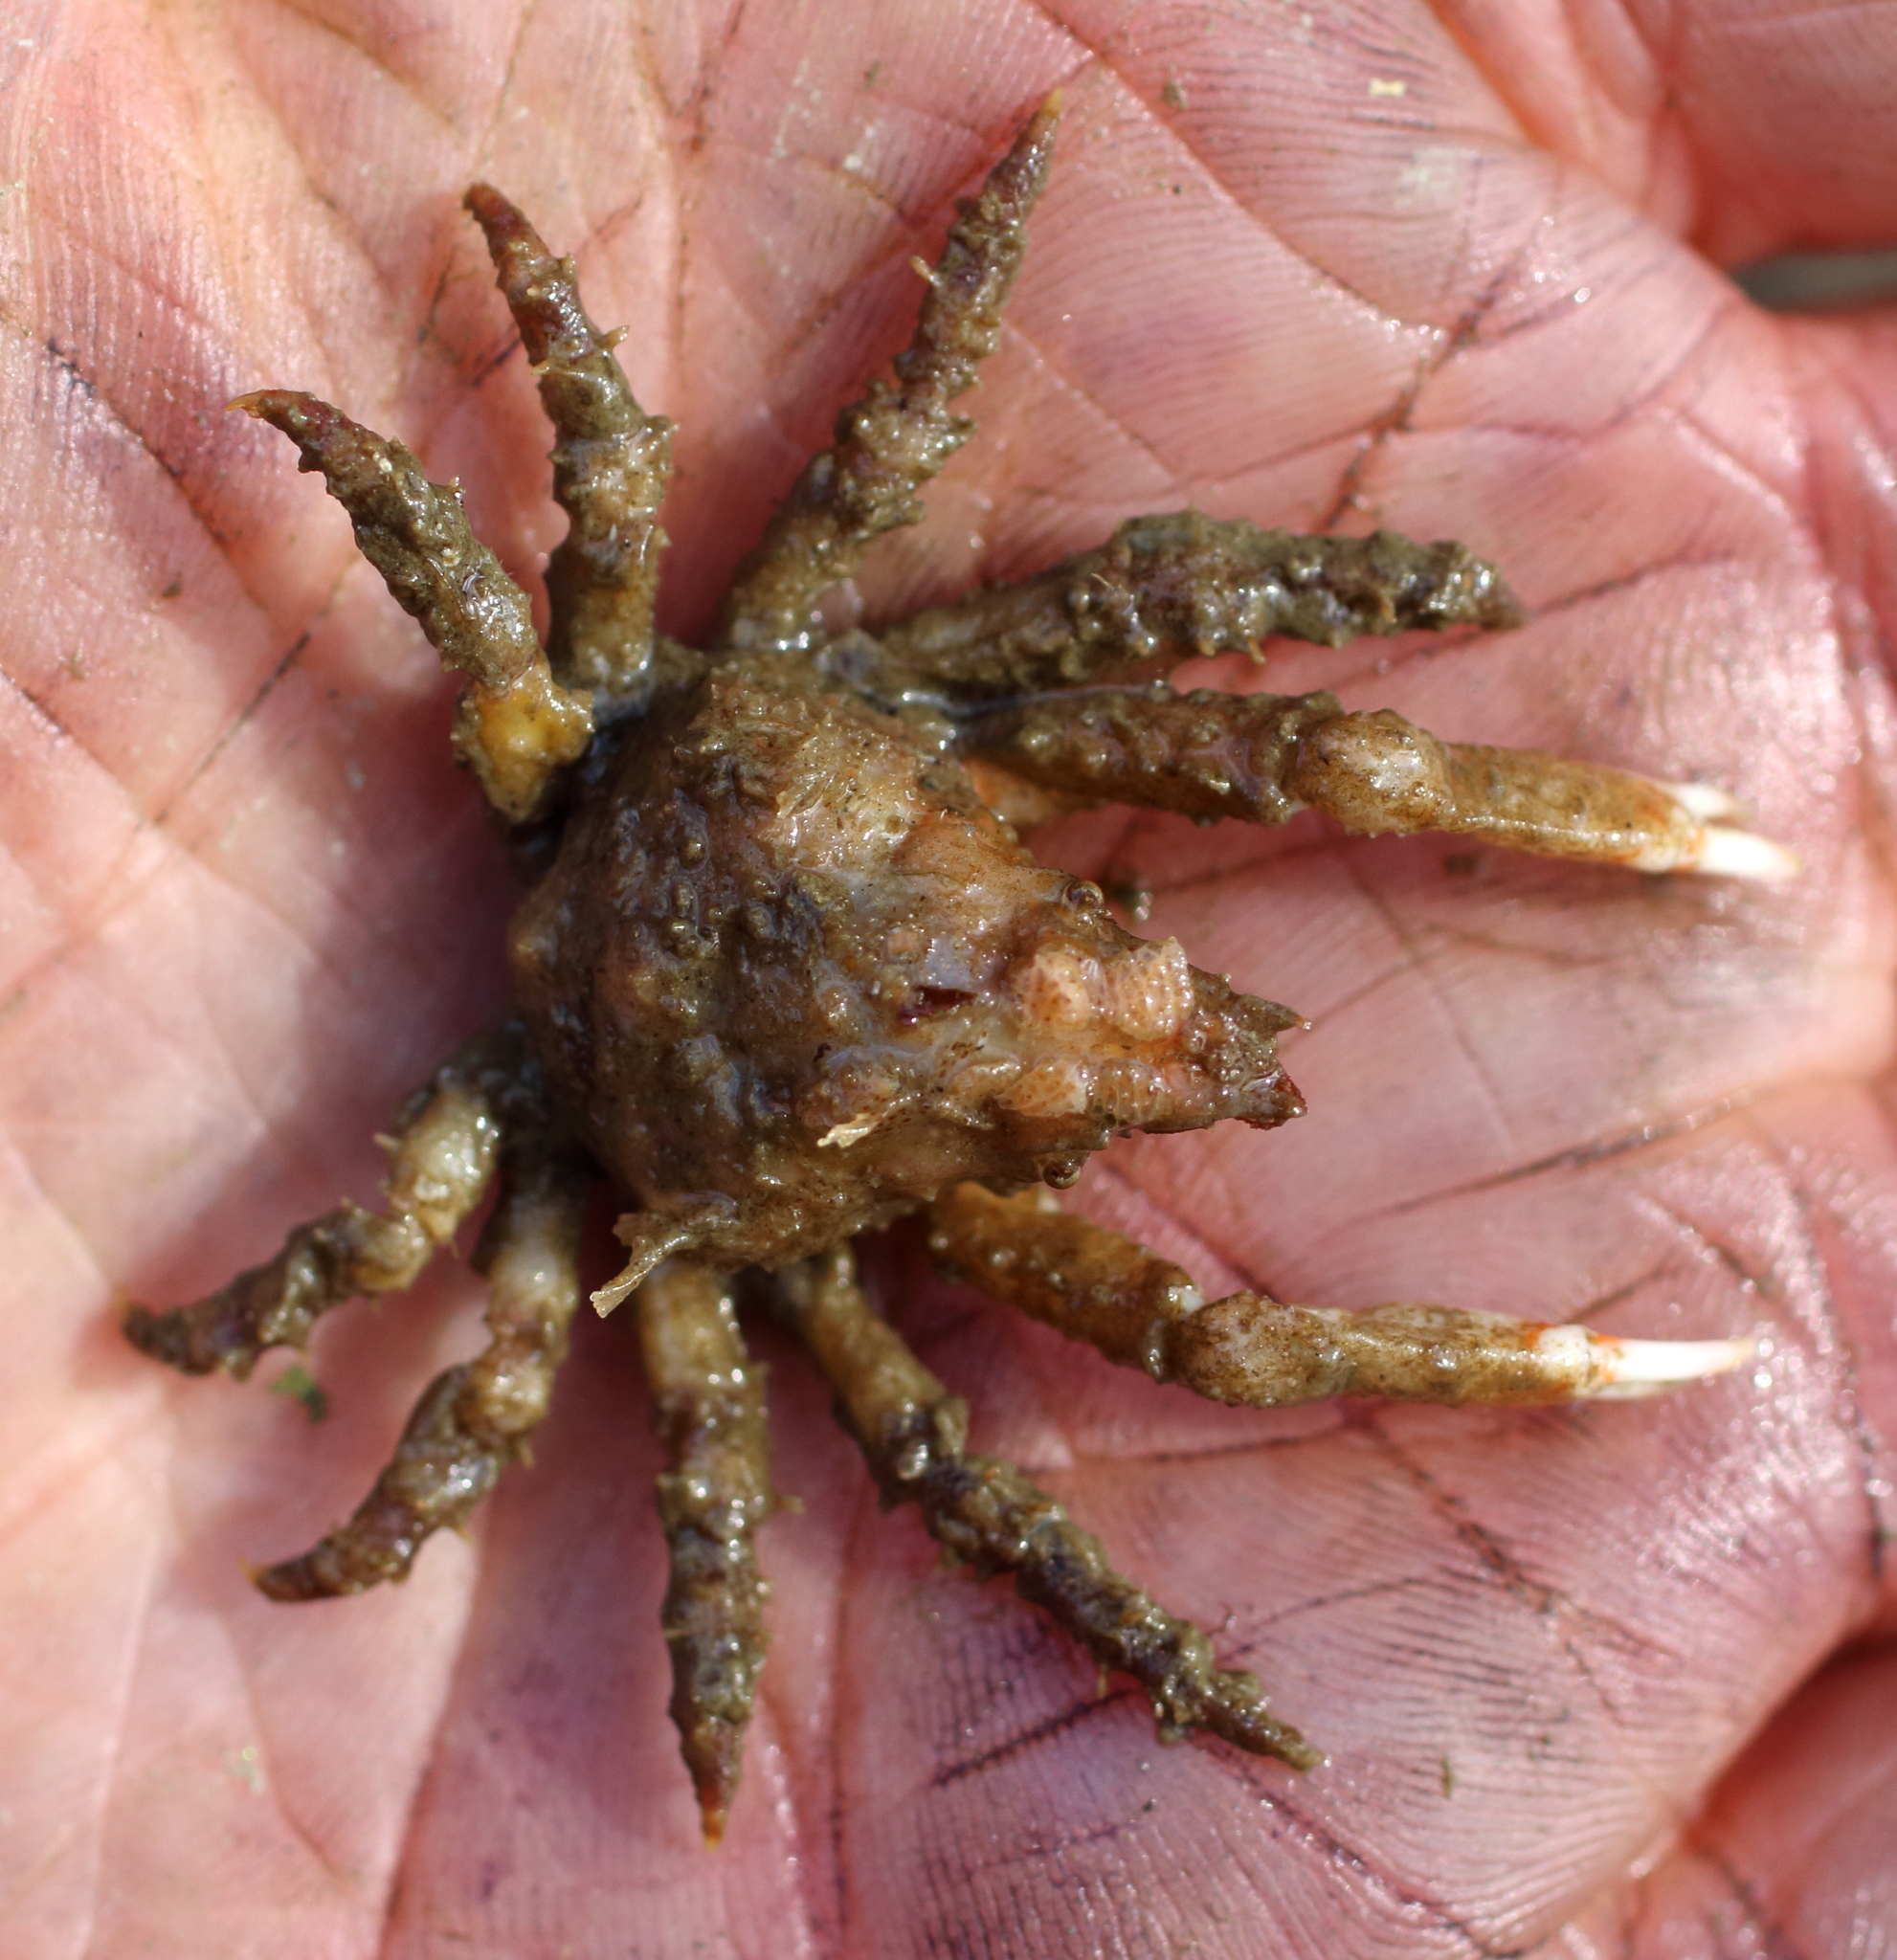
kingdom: Animalia
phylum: Arthropoda
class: Malacostraca
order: Decapoda
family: Epialtidae
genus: Scyra
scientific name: Scyra acutifrons
